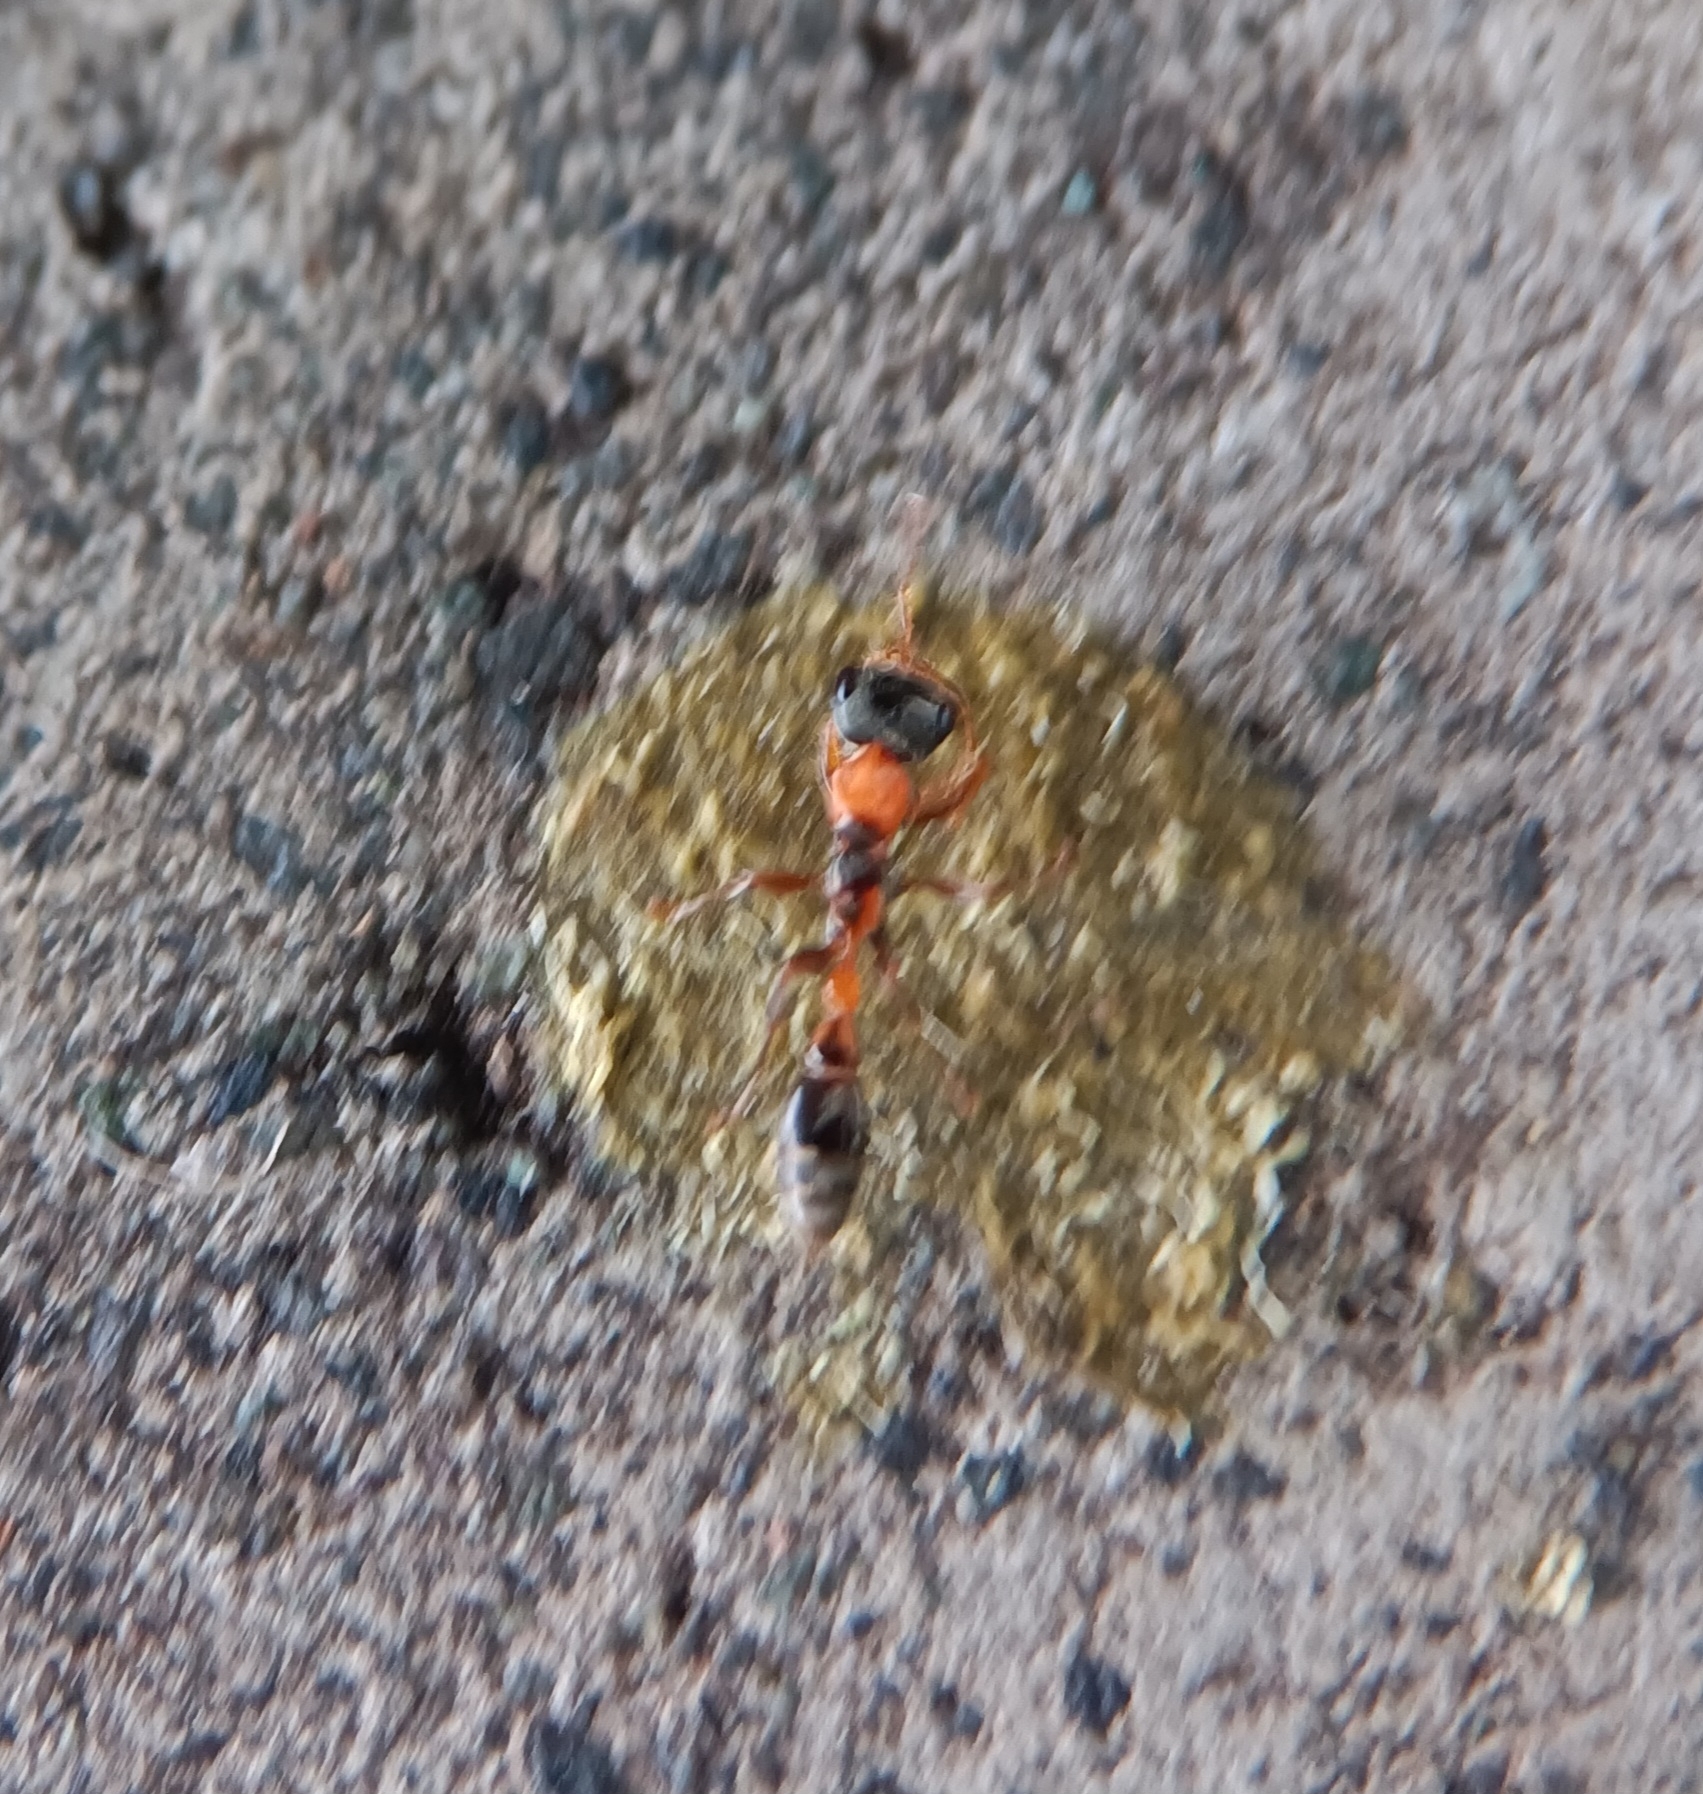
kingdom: Animalia
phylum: Arthropoda
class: Insecta
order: Hymenoptera
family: Formicidae
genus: Pseudomyrmex
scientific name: Pseudomyrmex gracilis
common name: Graceful twig ant
